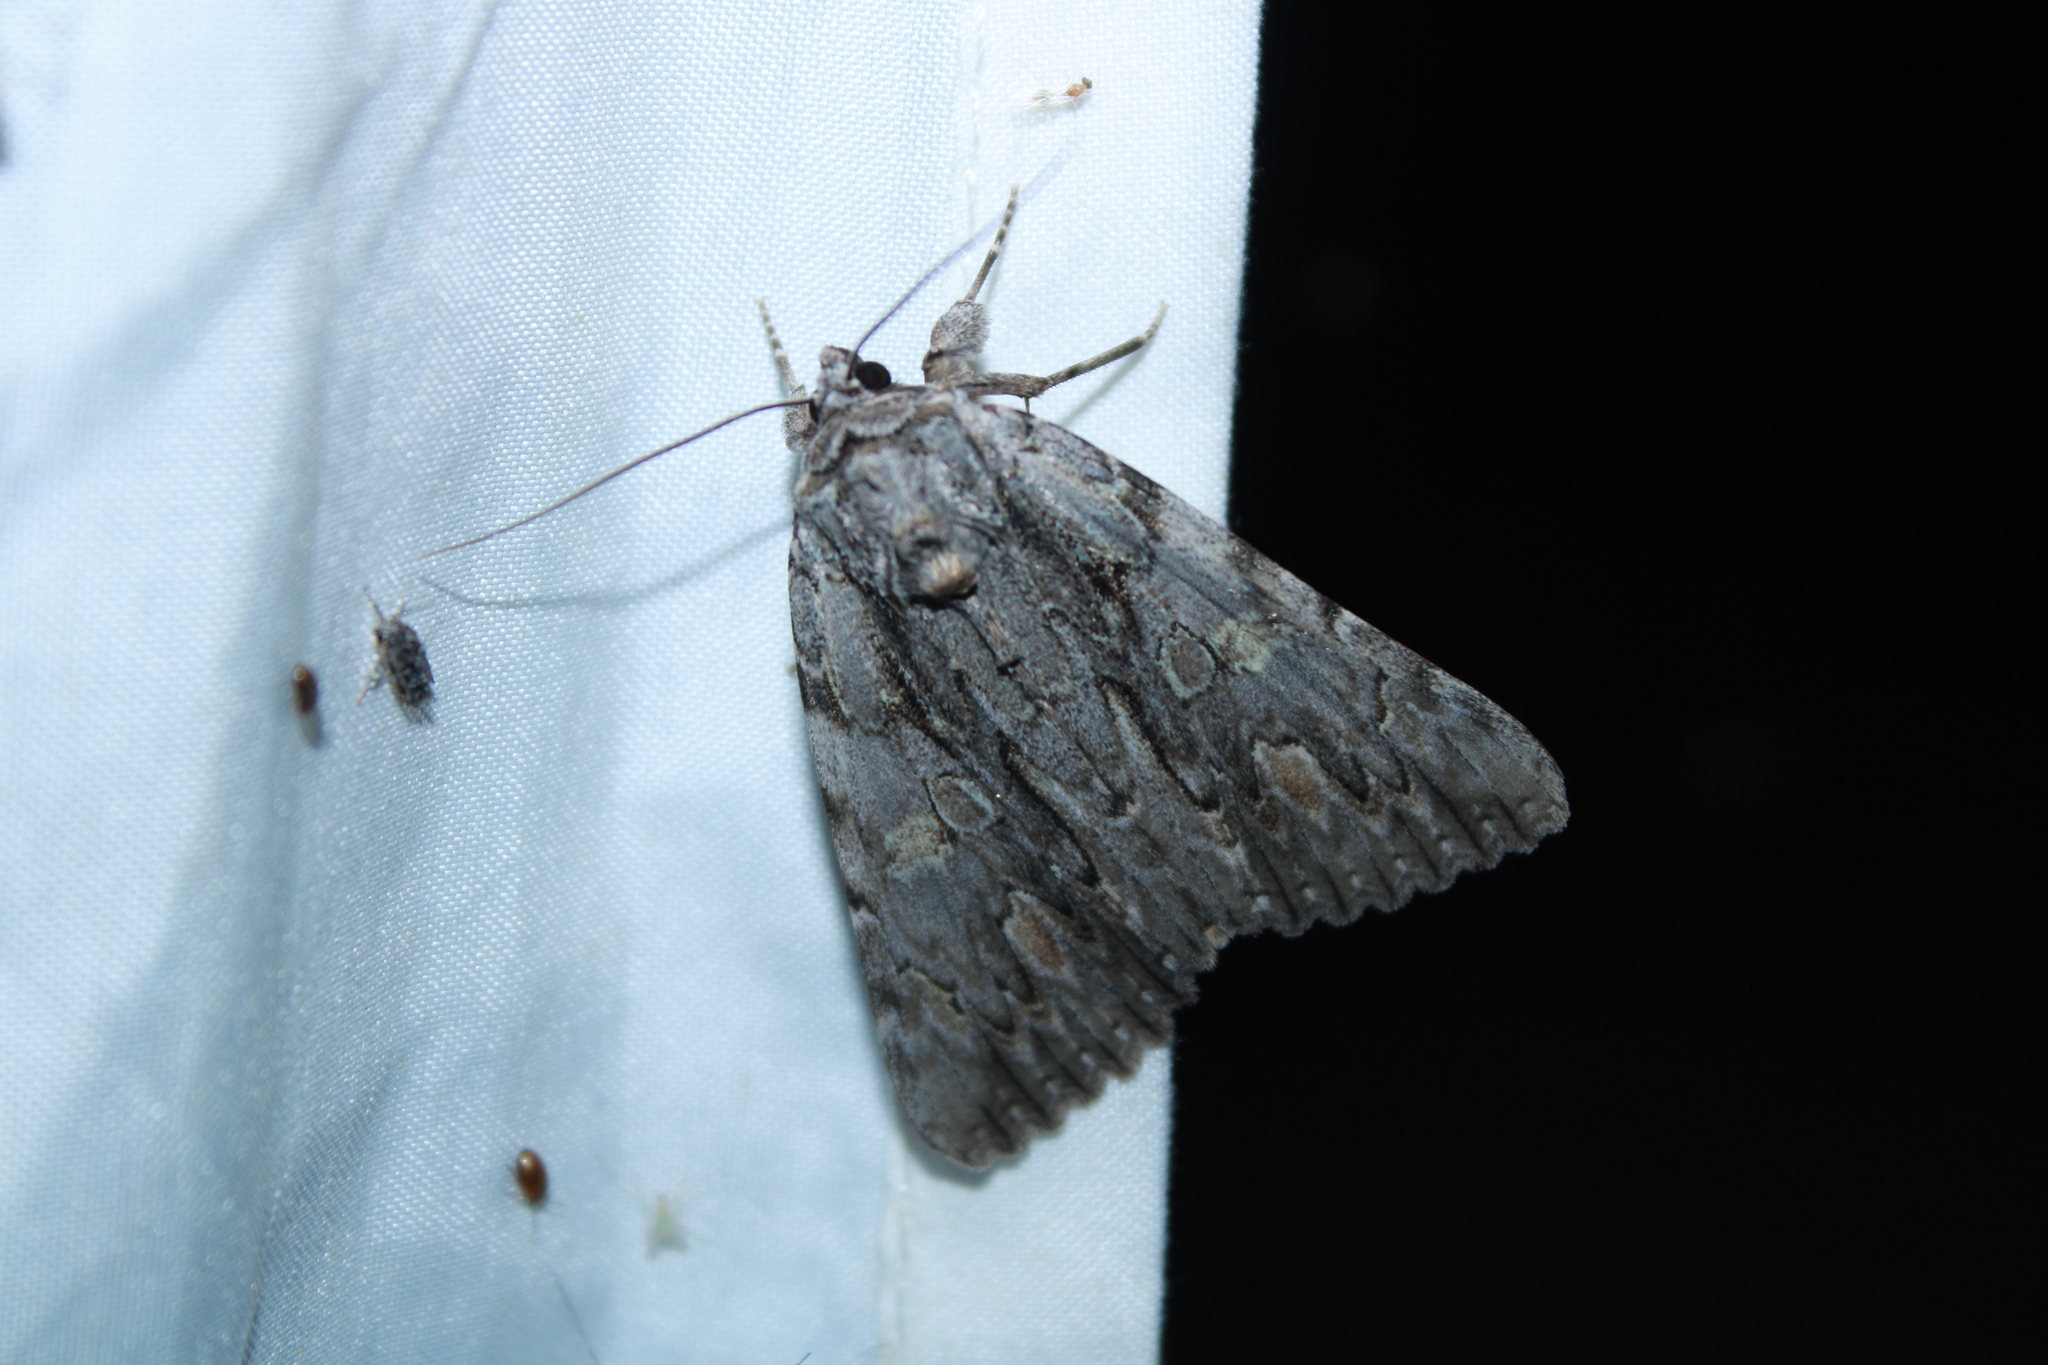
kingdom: Animalia
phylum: Arthropoda
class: Insecta
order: Lepidoptera
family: Erebidae
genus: Catocala
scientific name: Catocala coccinata
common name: Scarlet underwing
